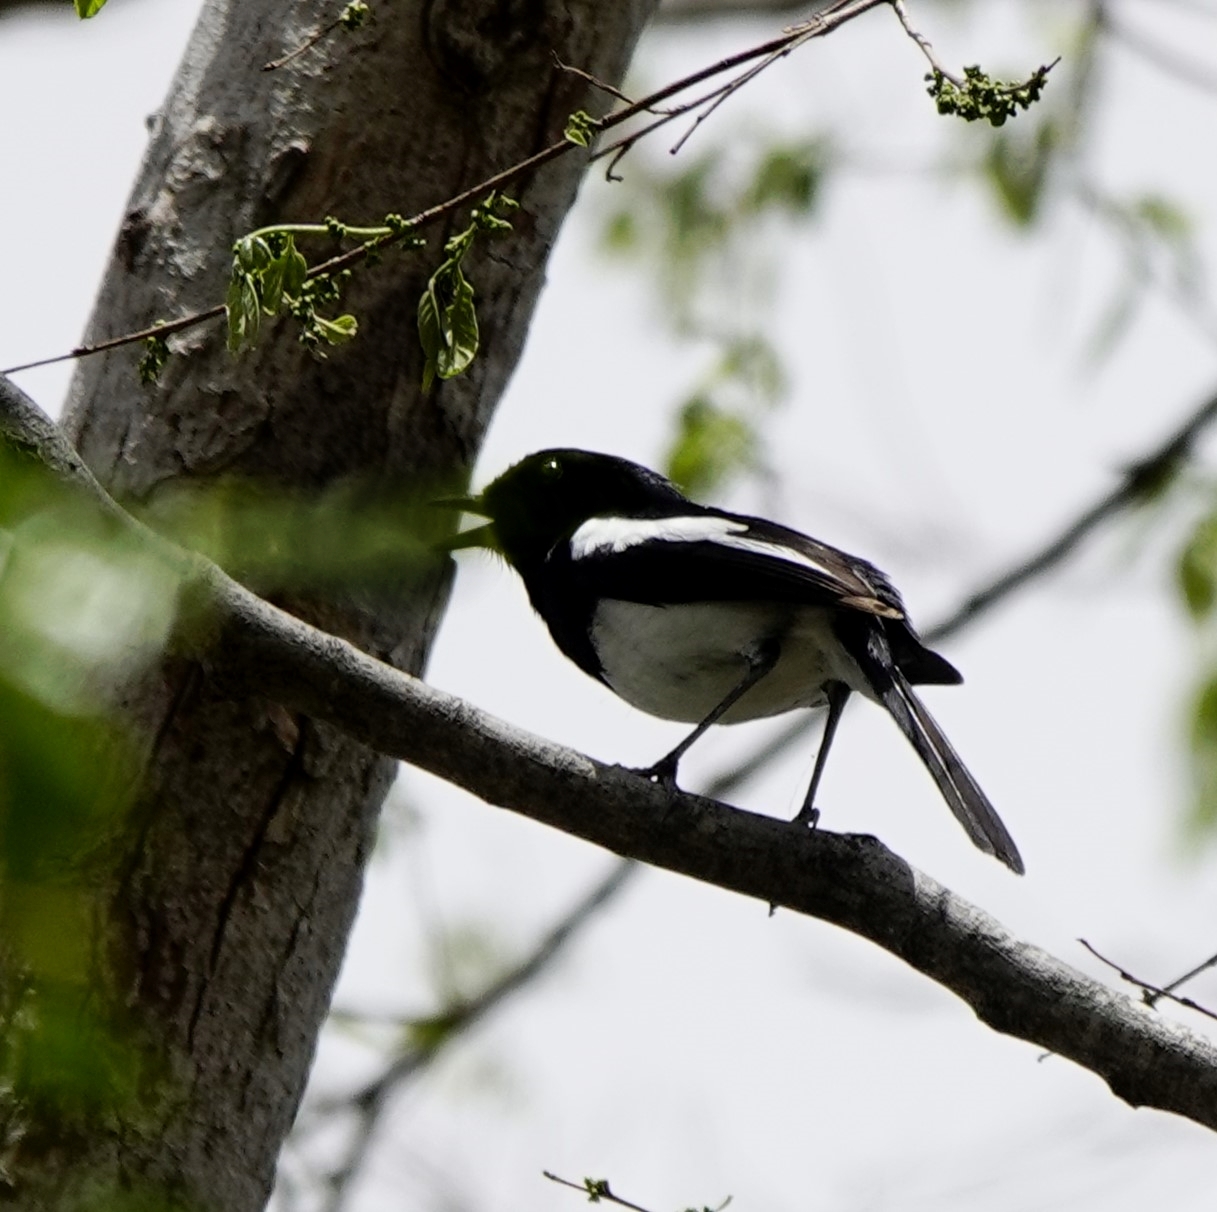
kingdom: Animalia
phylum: Chordata
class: Aves
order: Passeriformes
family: Muscicapidae
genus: Copsychus
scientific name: Copsychus albospecularis
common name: Madagascar magpie-robin
